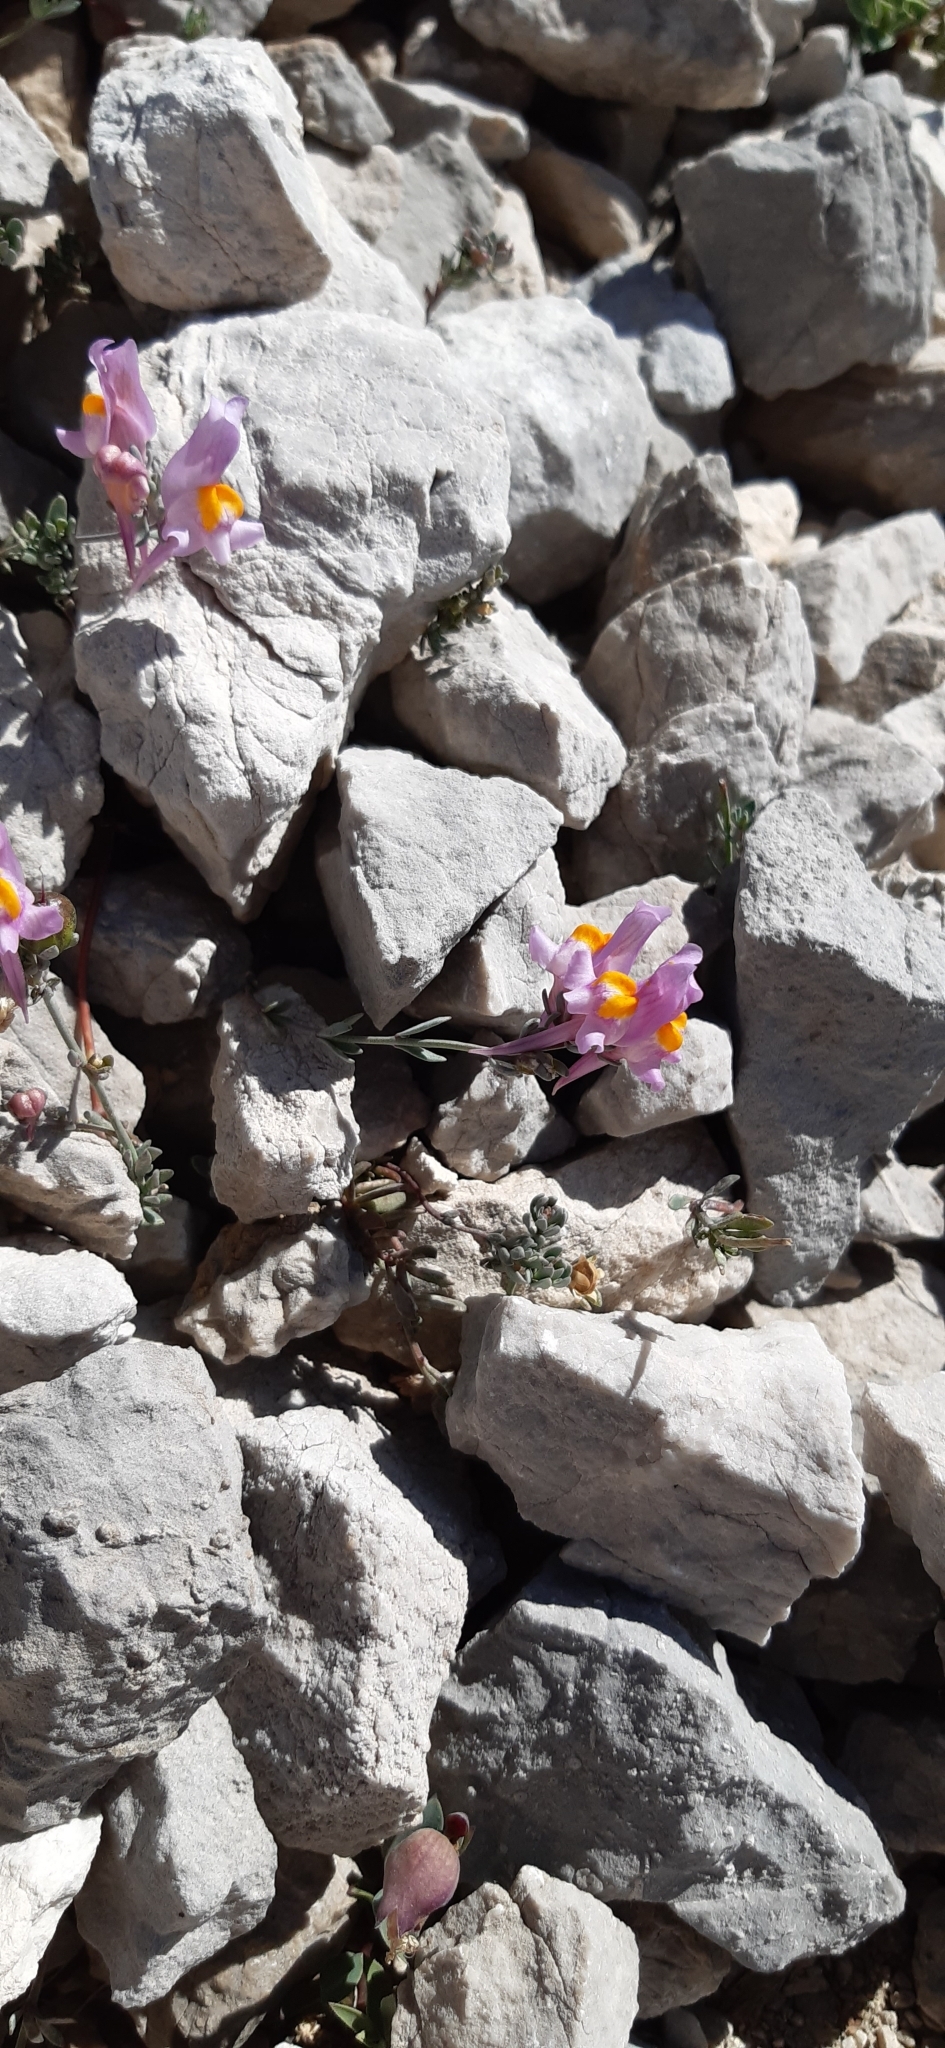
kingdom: Plantae
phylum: Tracheophyta
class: Magnoliopsida
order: Lamiales
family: Plantaginaceae
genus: Linaria
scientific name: Linaria alpina
